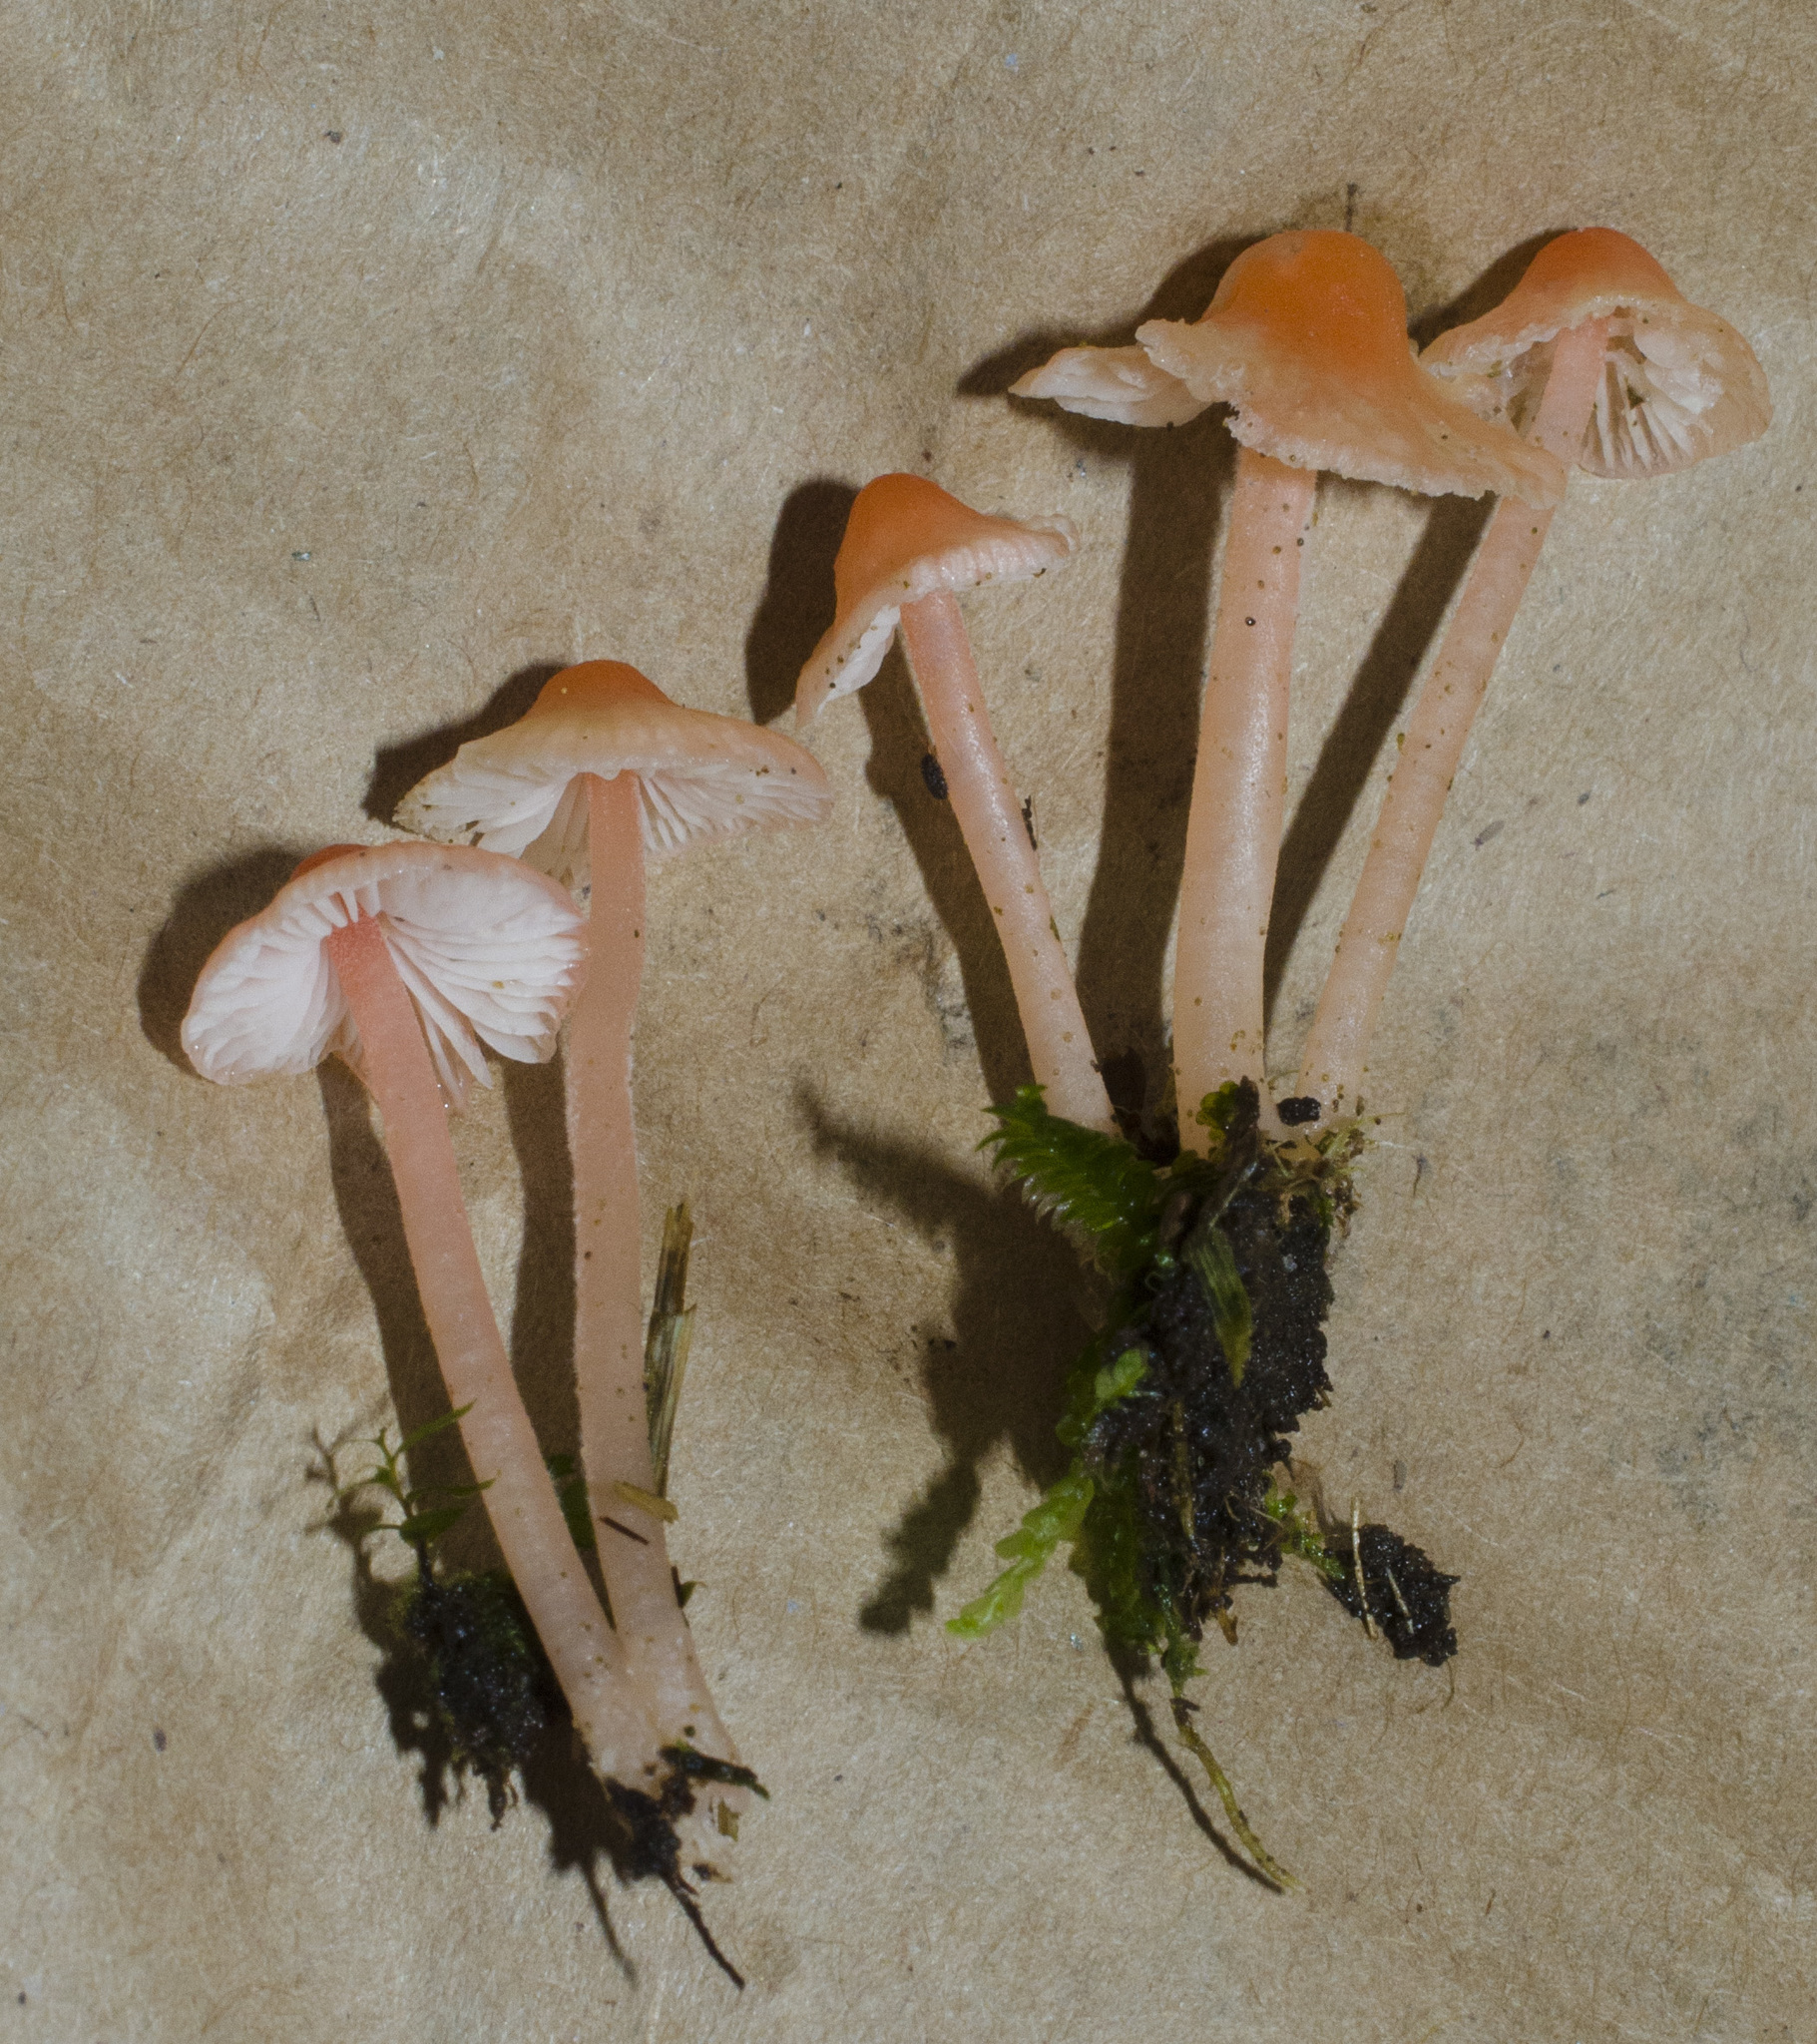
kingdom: Fungi
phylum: Basidiomycota
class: Agaricomycetes
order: Agaricales
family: Mycenaceae
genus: Atheniella
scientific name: Atheniella adonis
